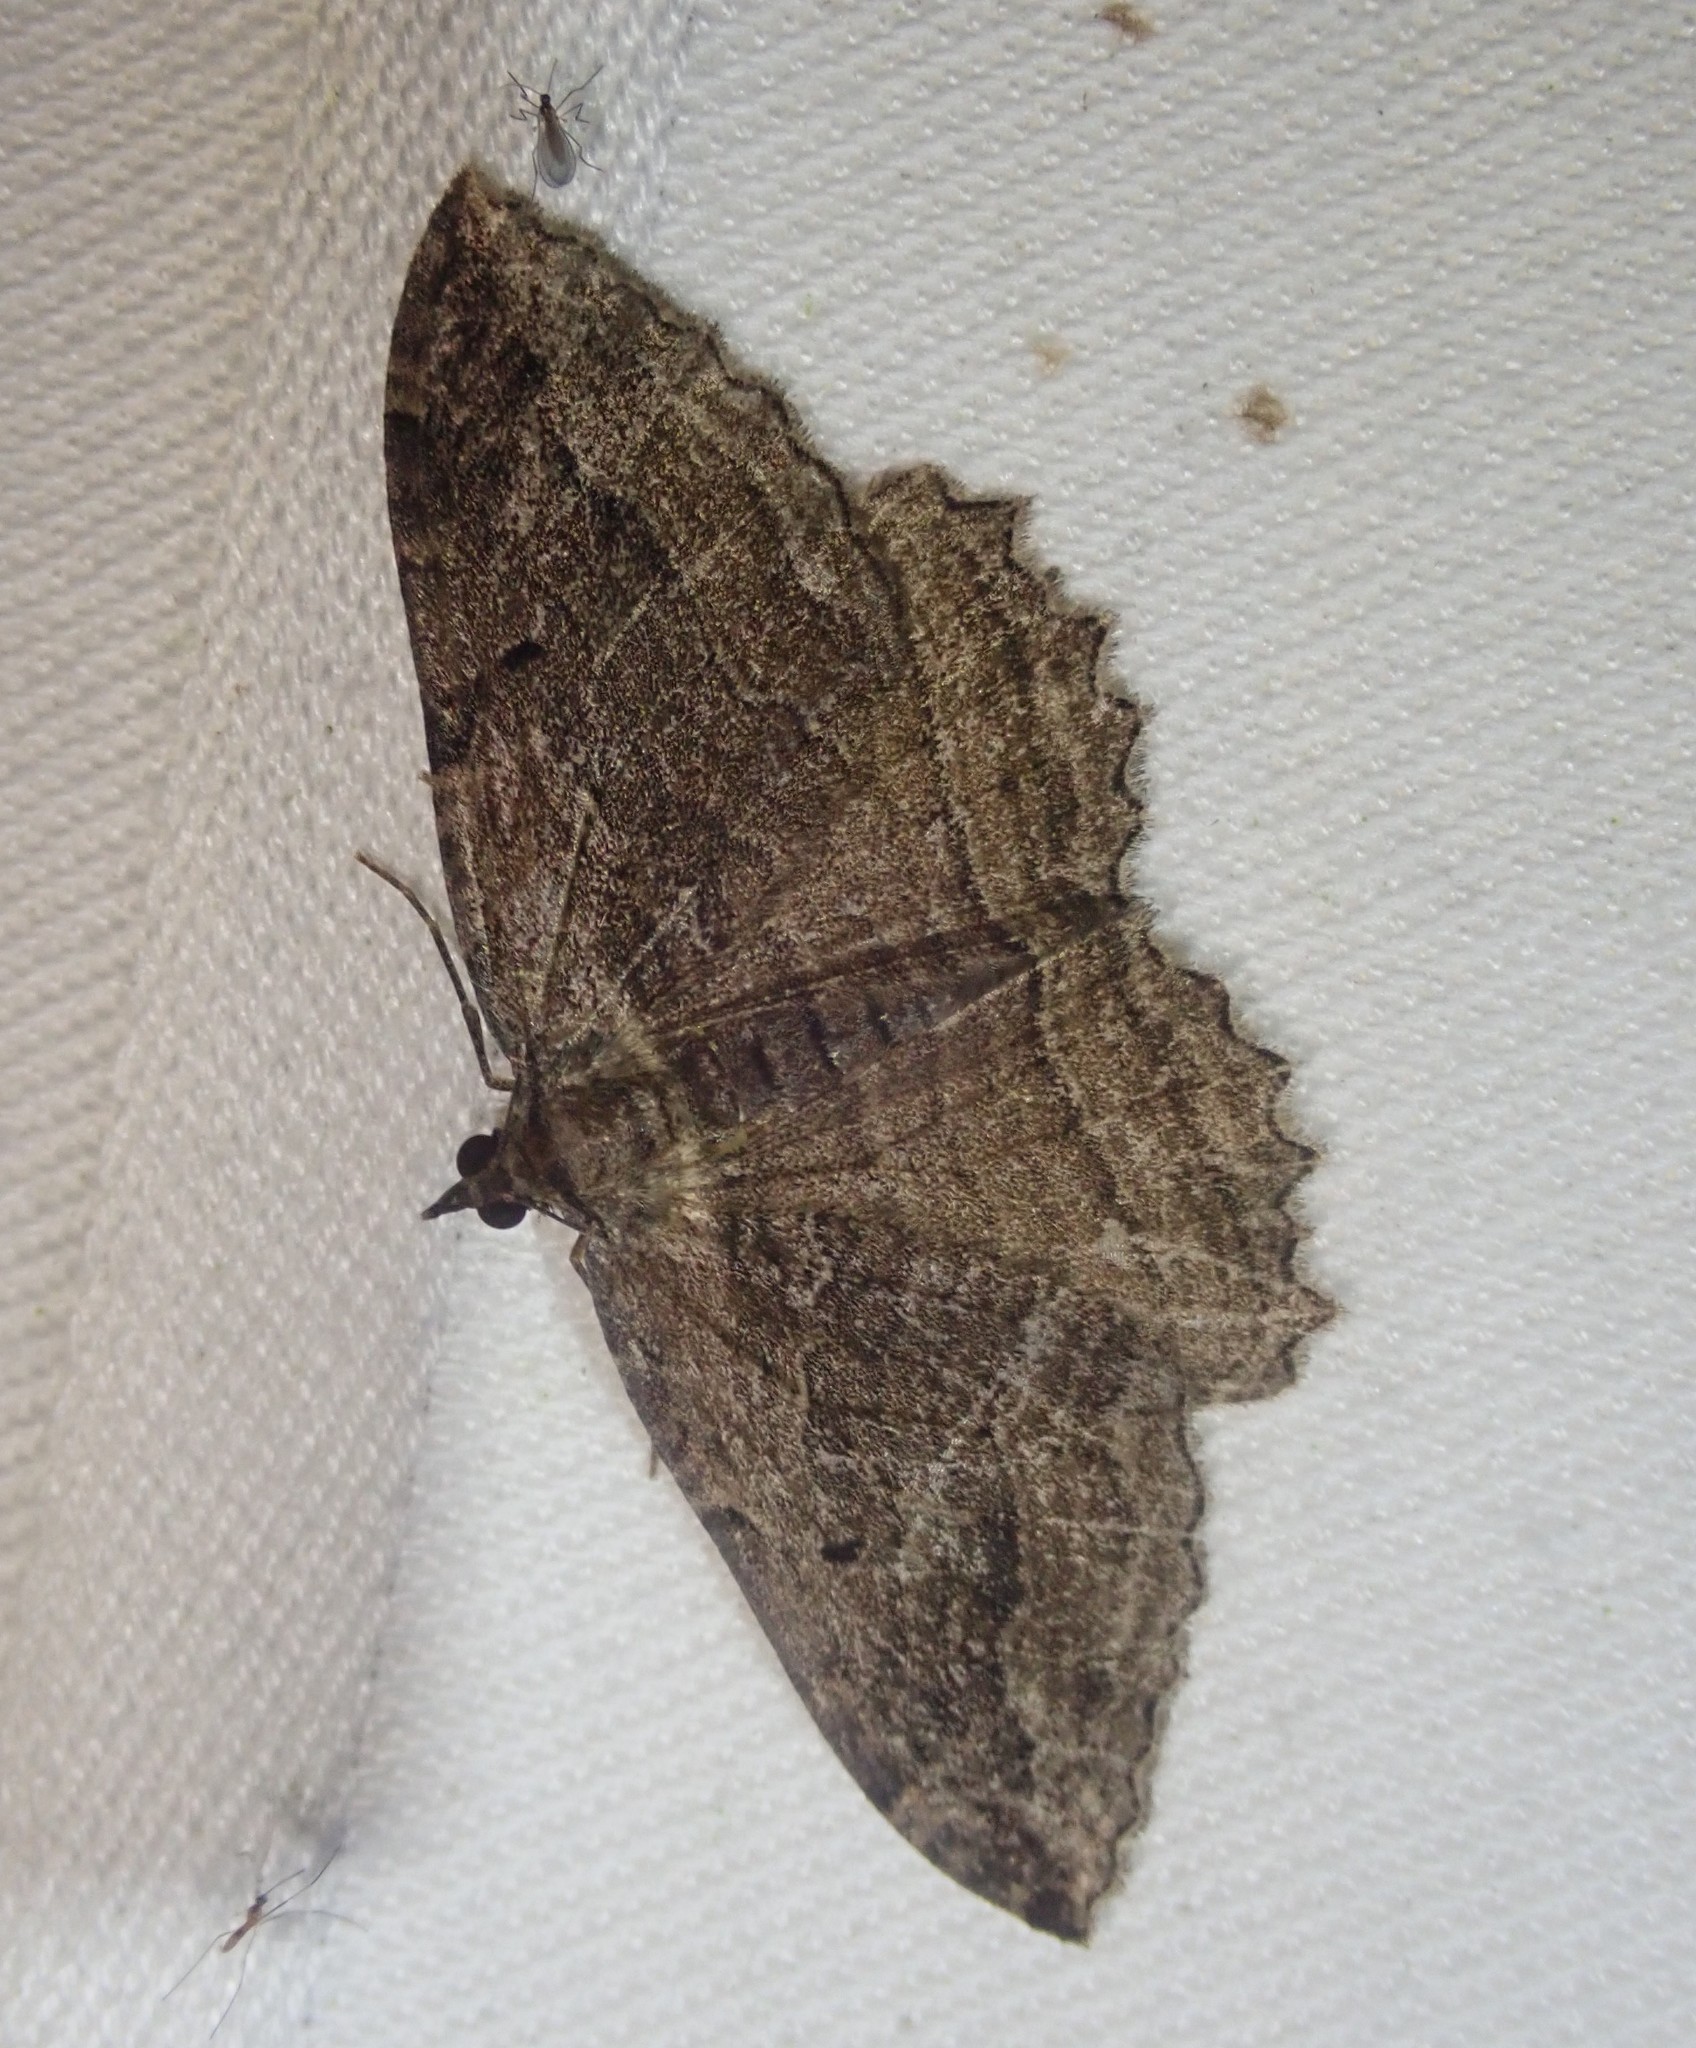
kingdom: Animalia
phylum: Arthropoda
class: Insecta
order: Lepidoptera
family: Geometridae
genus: Philereme
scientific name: Philereme transversata
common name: Dark umber
